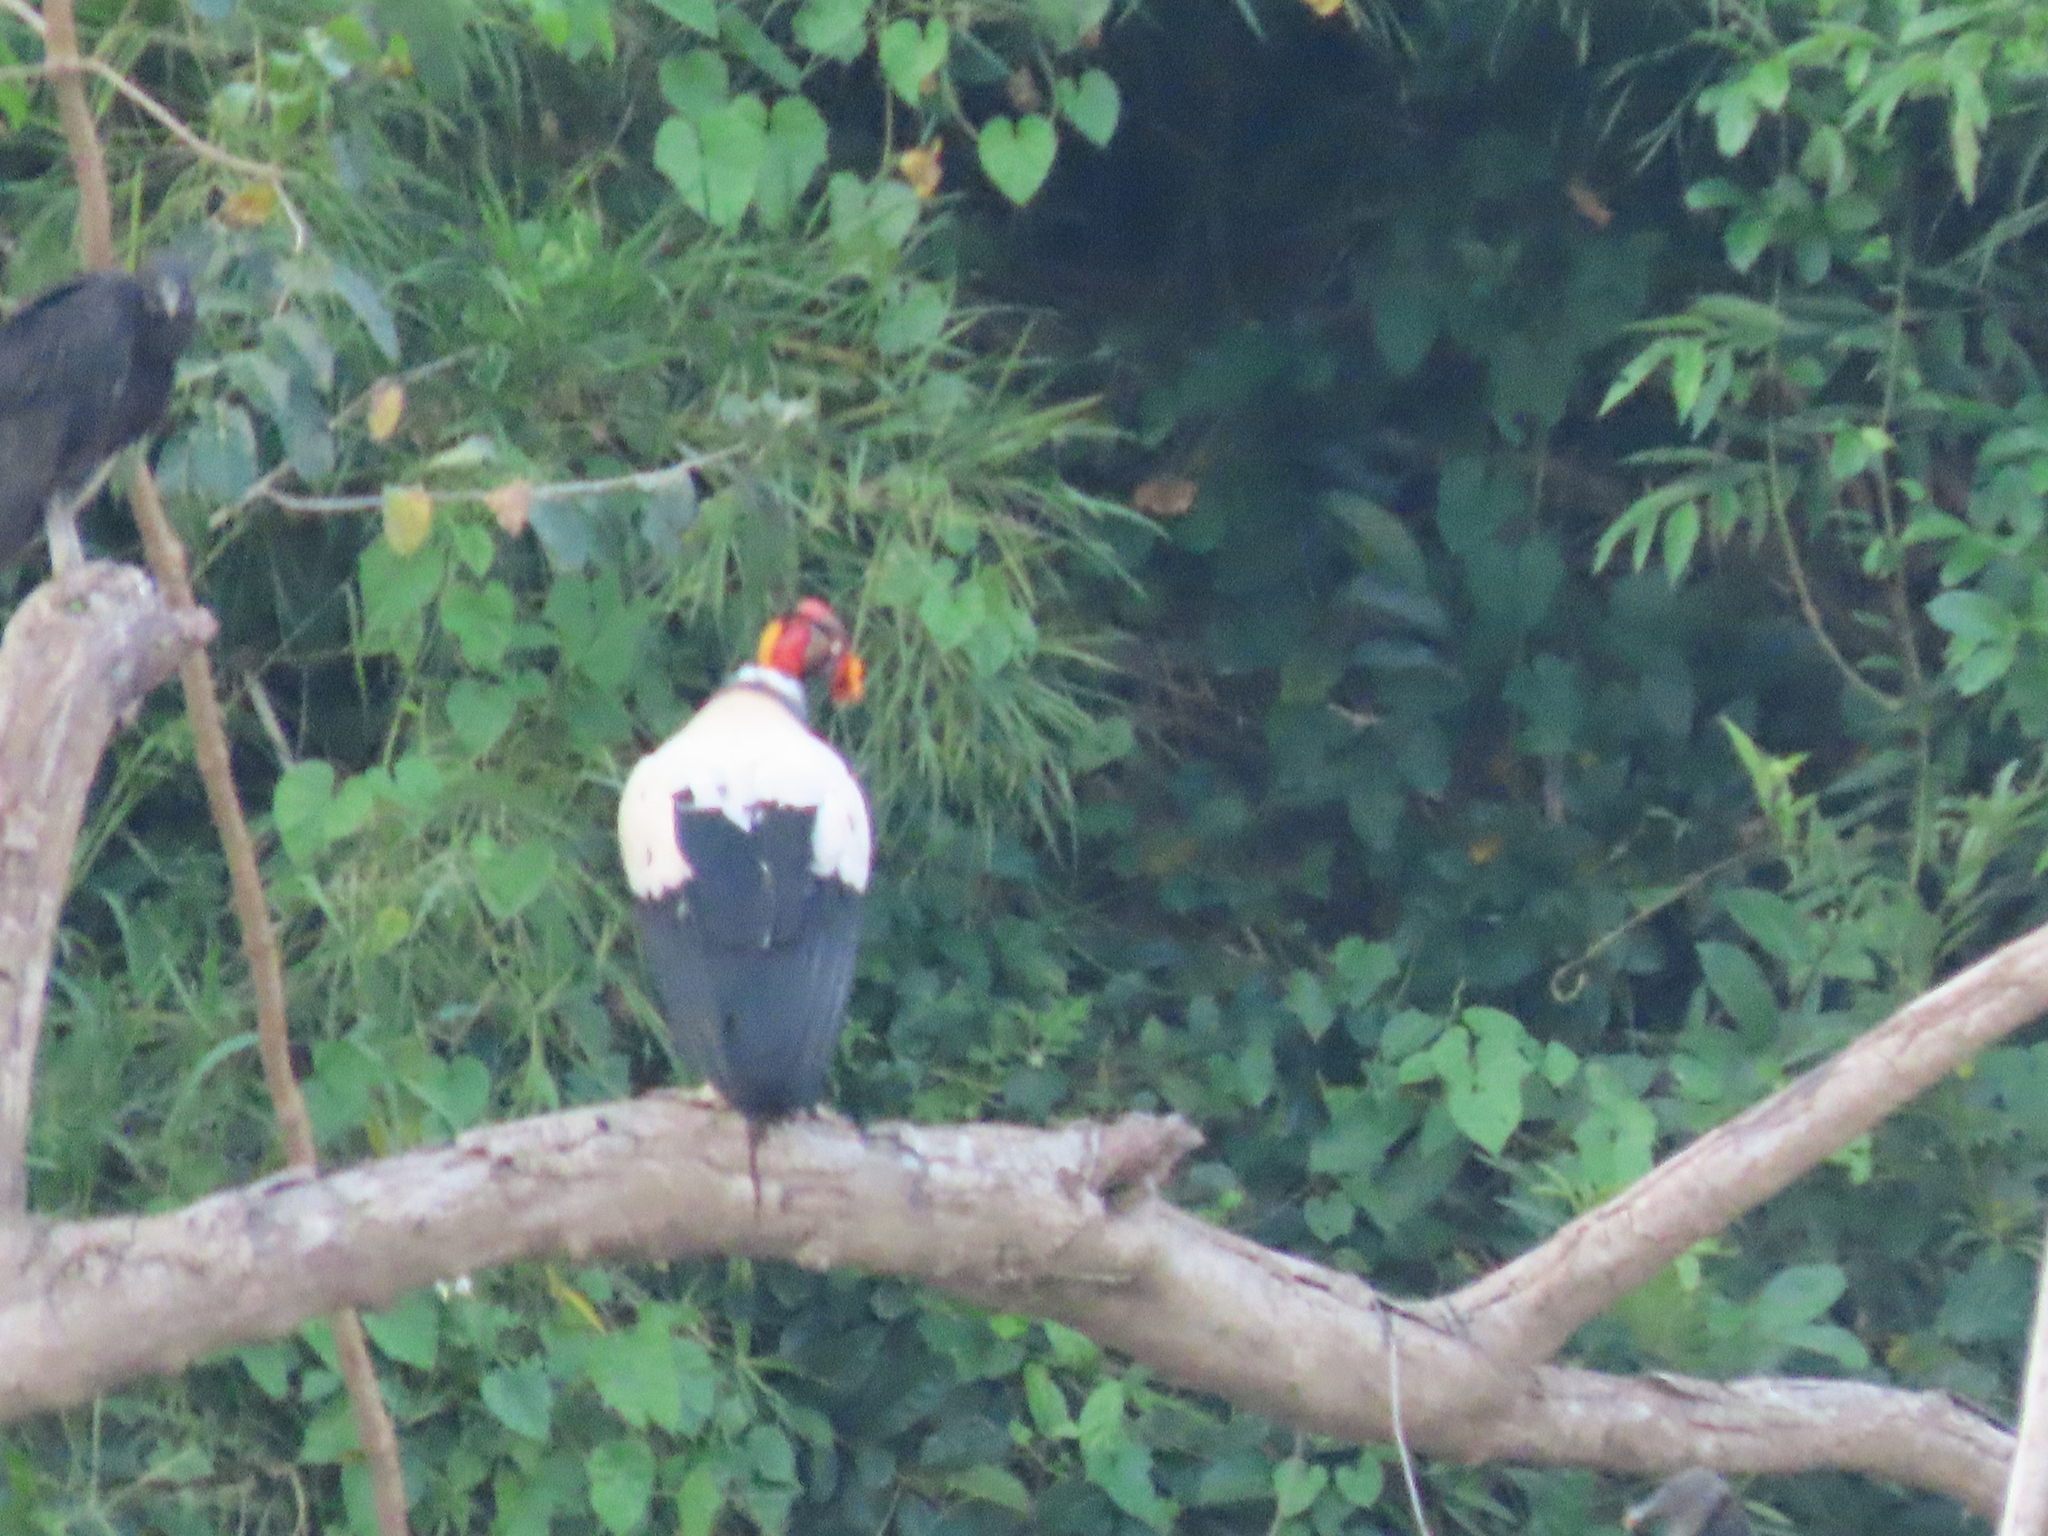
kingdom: Animalia
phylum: Chordata
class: Aves
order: Accipitriformes
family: Cathartidae
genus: Sarcoramphus
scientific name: Sarcoramphus papa
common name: King vulture
